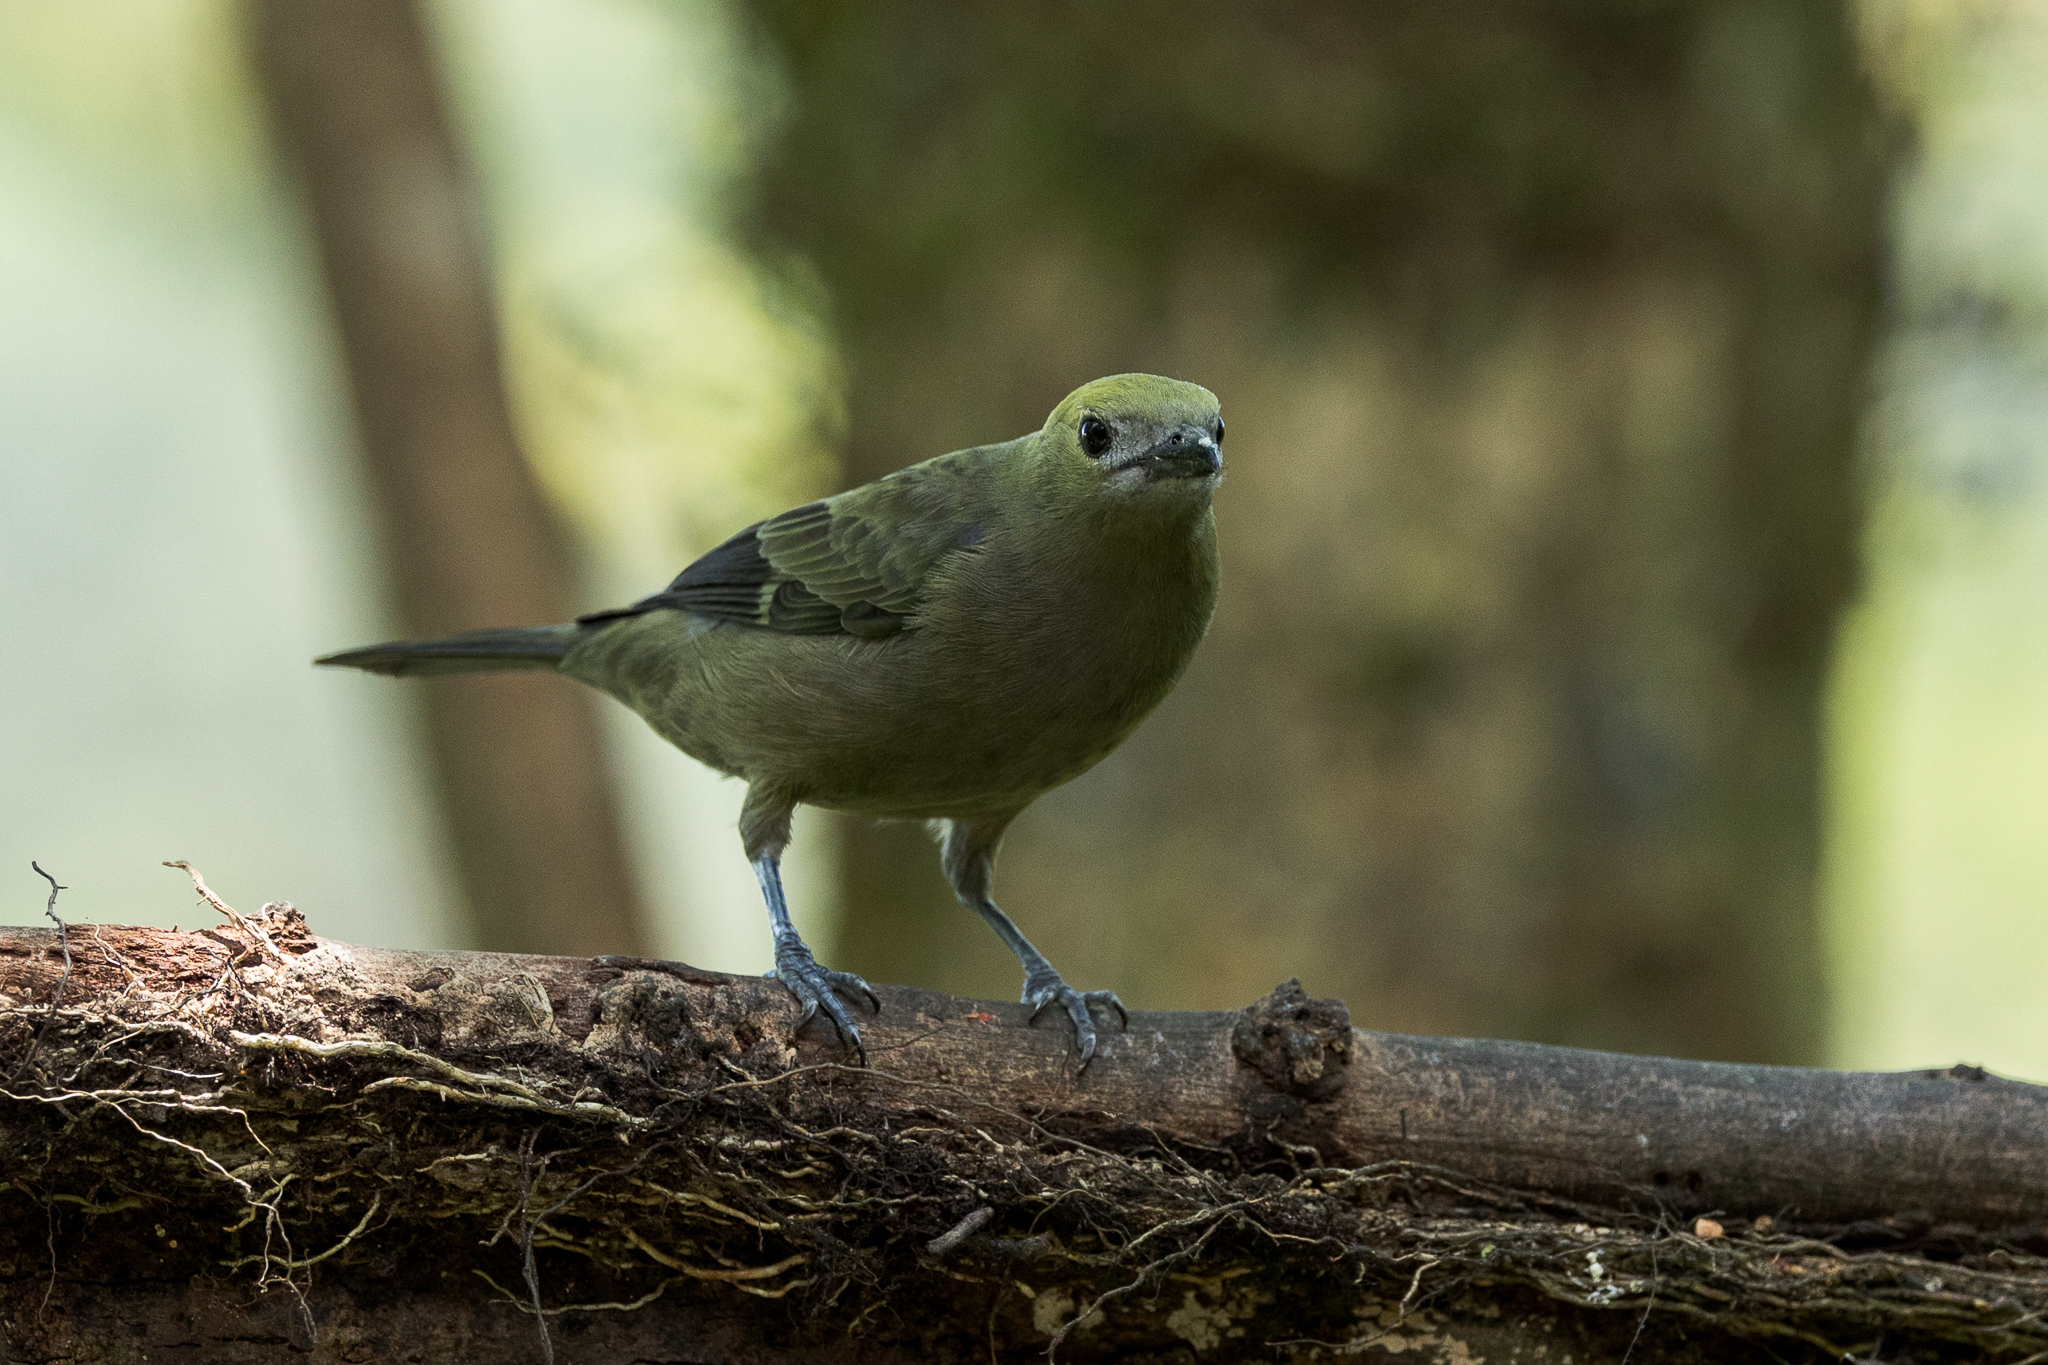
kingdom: Animalia
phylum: Chordata
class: Aves
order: Passeriformes
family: Thraupidae
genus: Thraupis
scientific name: Thraupis palmarum
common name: Palm tanager
